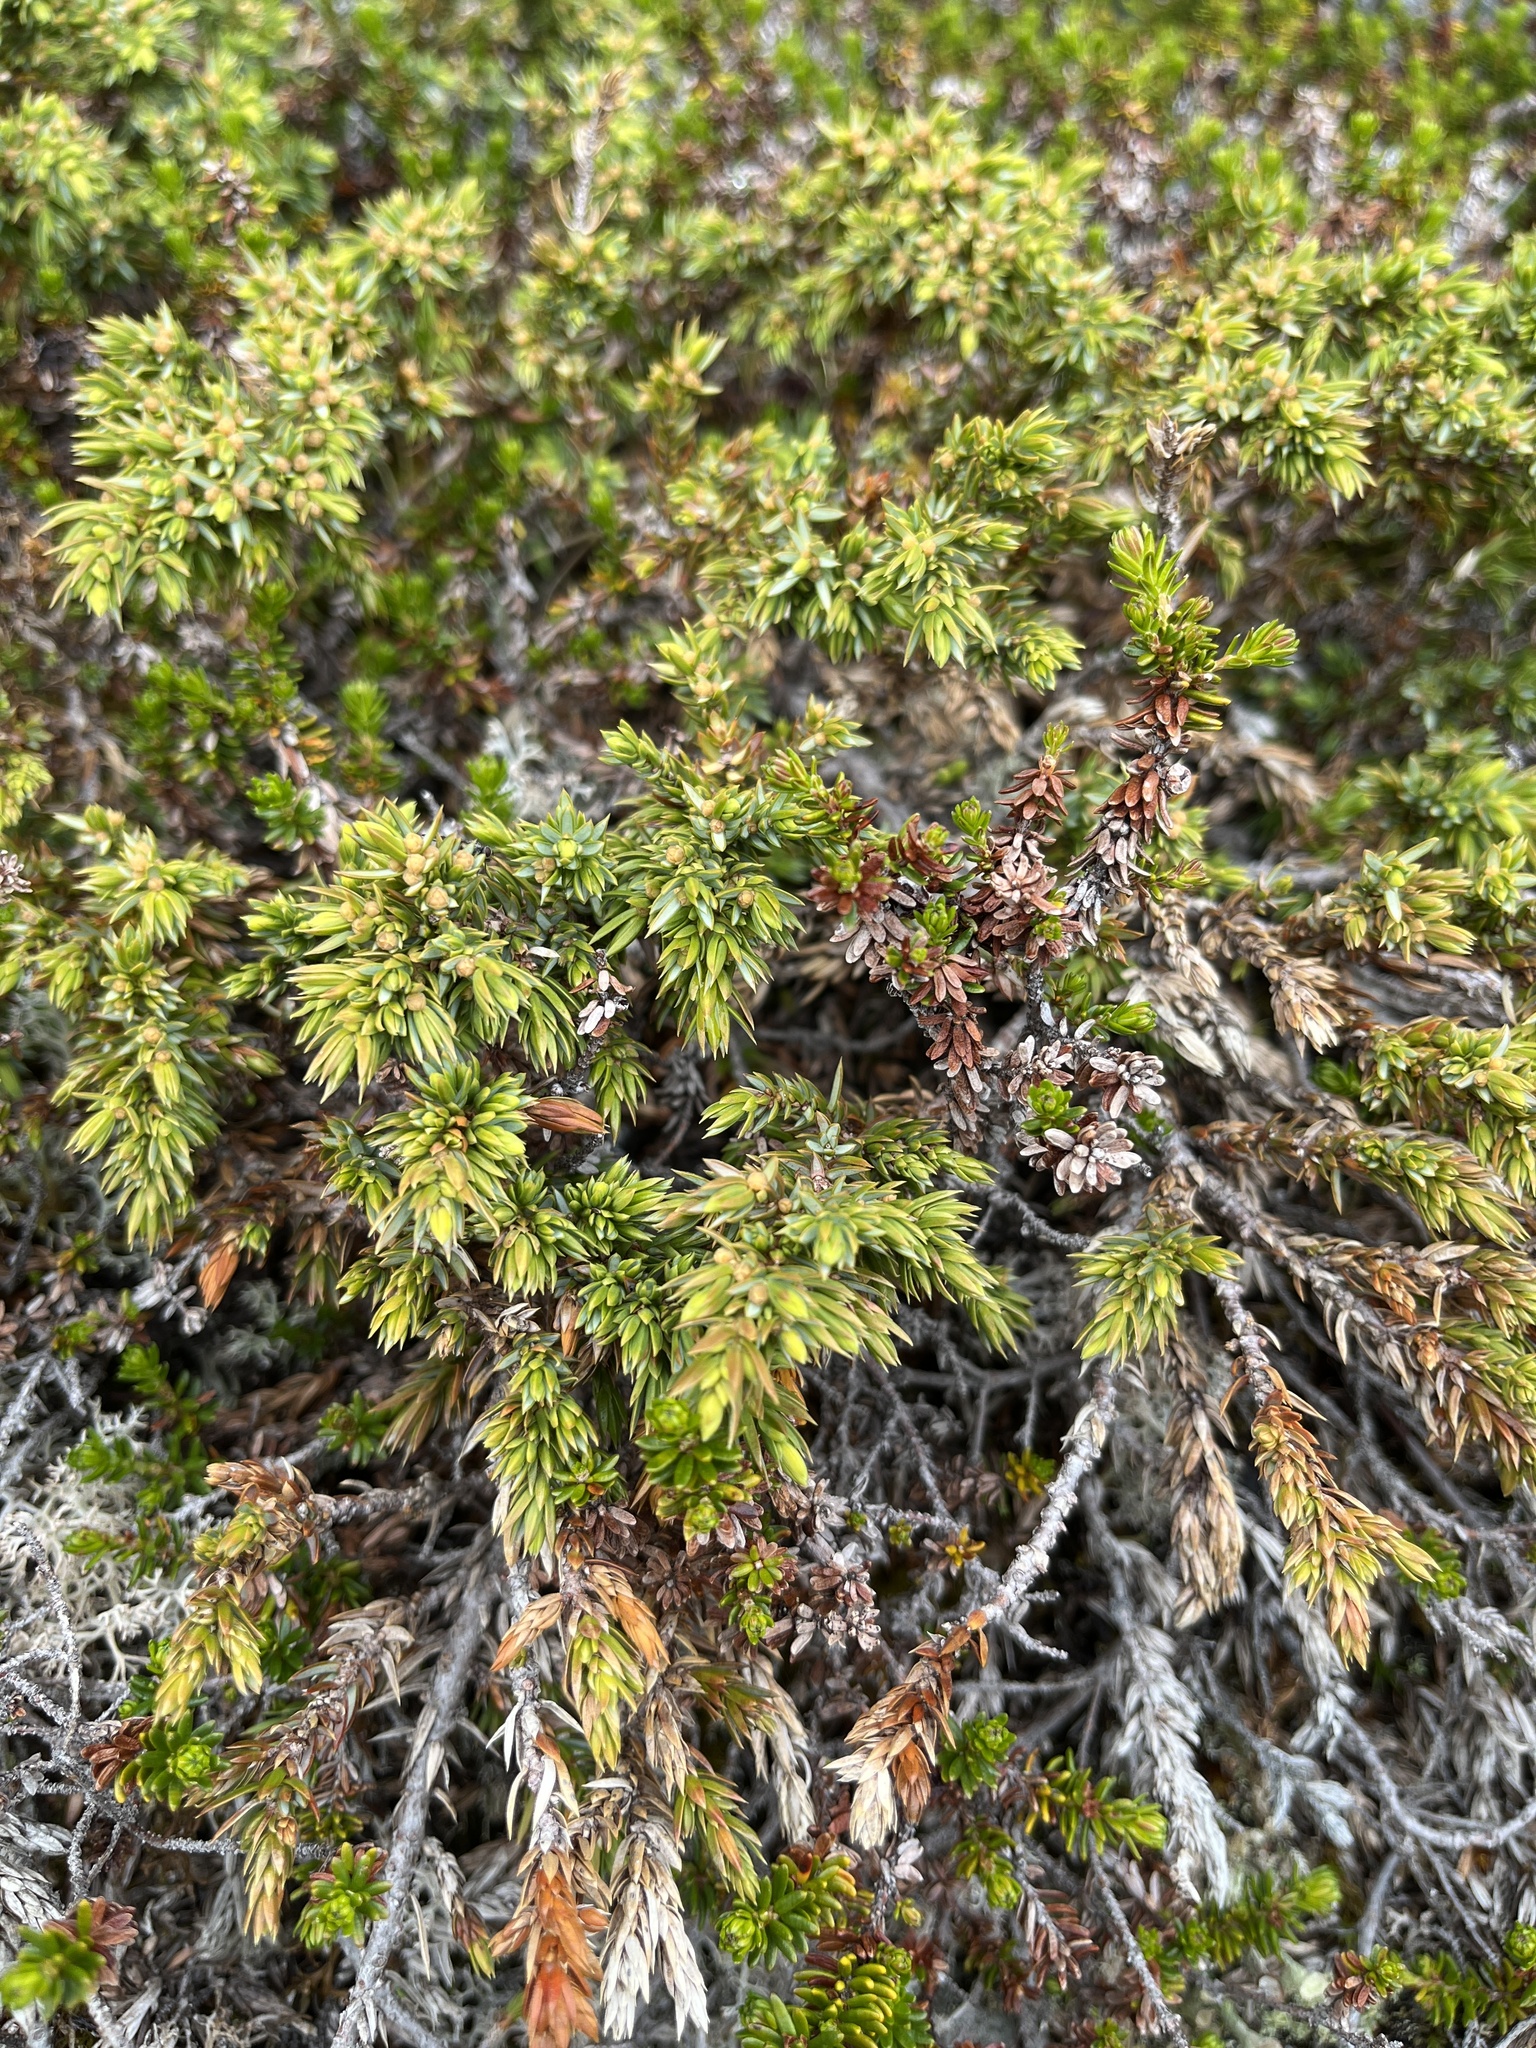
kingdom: Plantae
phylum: Tracheophyta
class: Pinopsida
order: Pinales
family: Cupressaceae
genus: Juniperus
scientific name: Juniperus communis
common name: Common juniper
